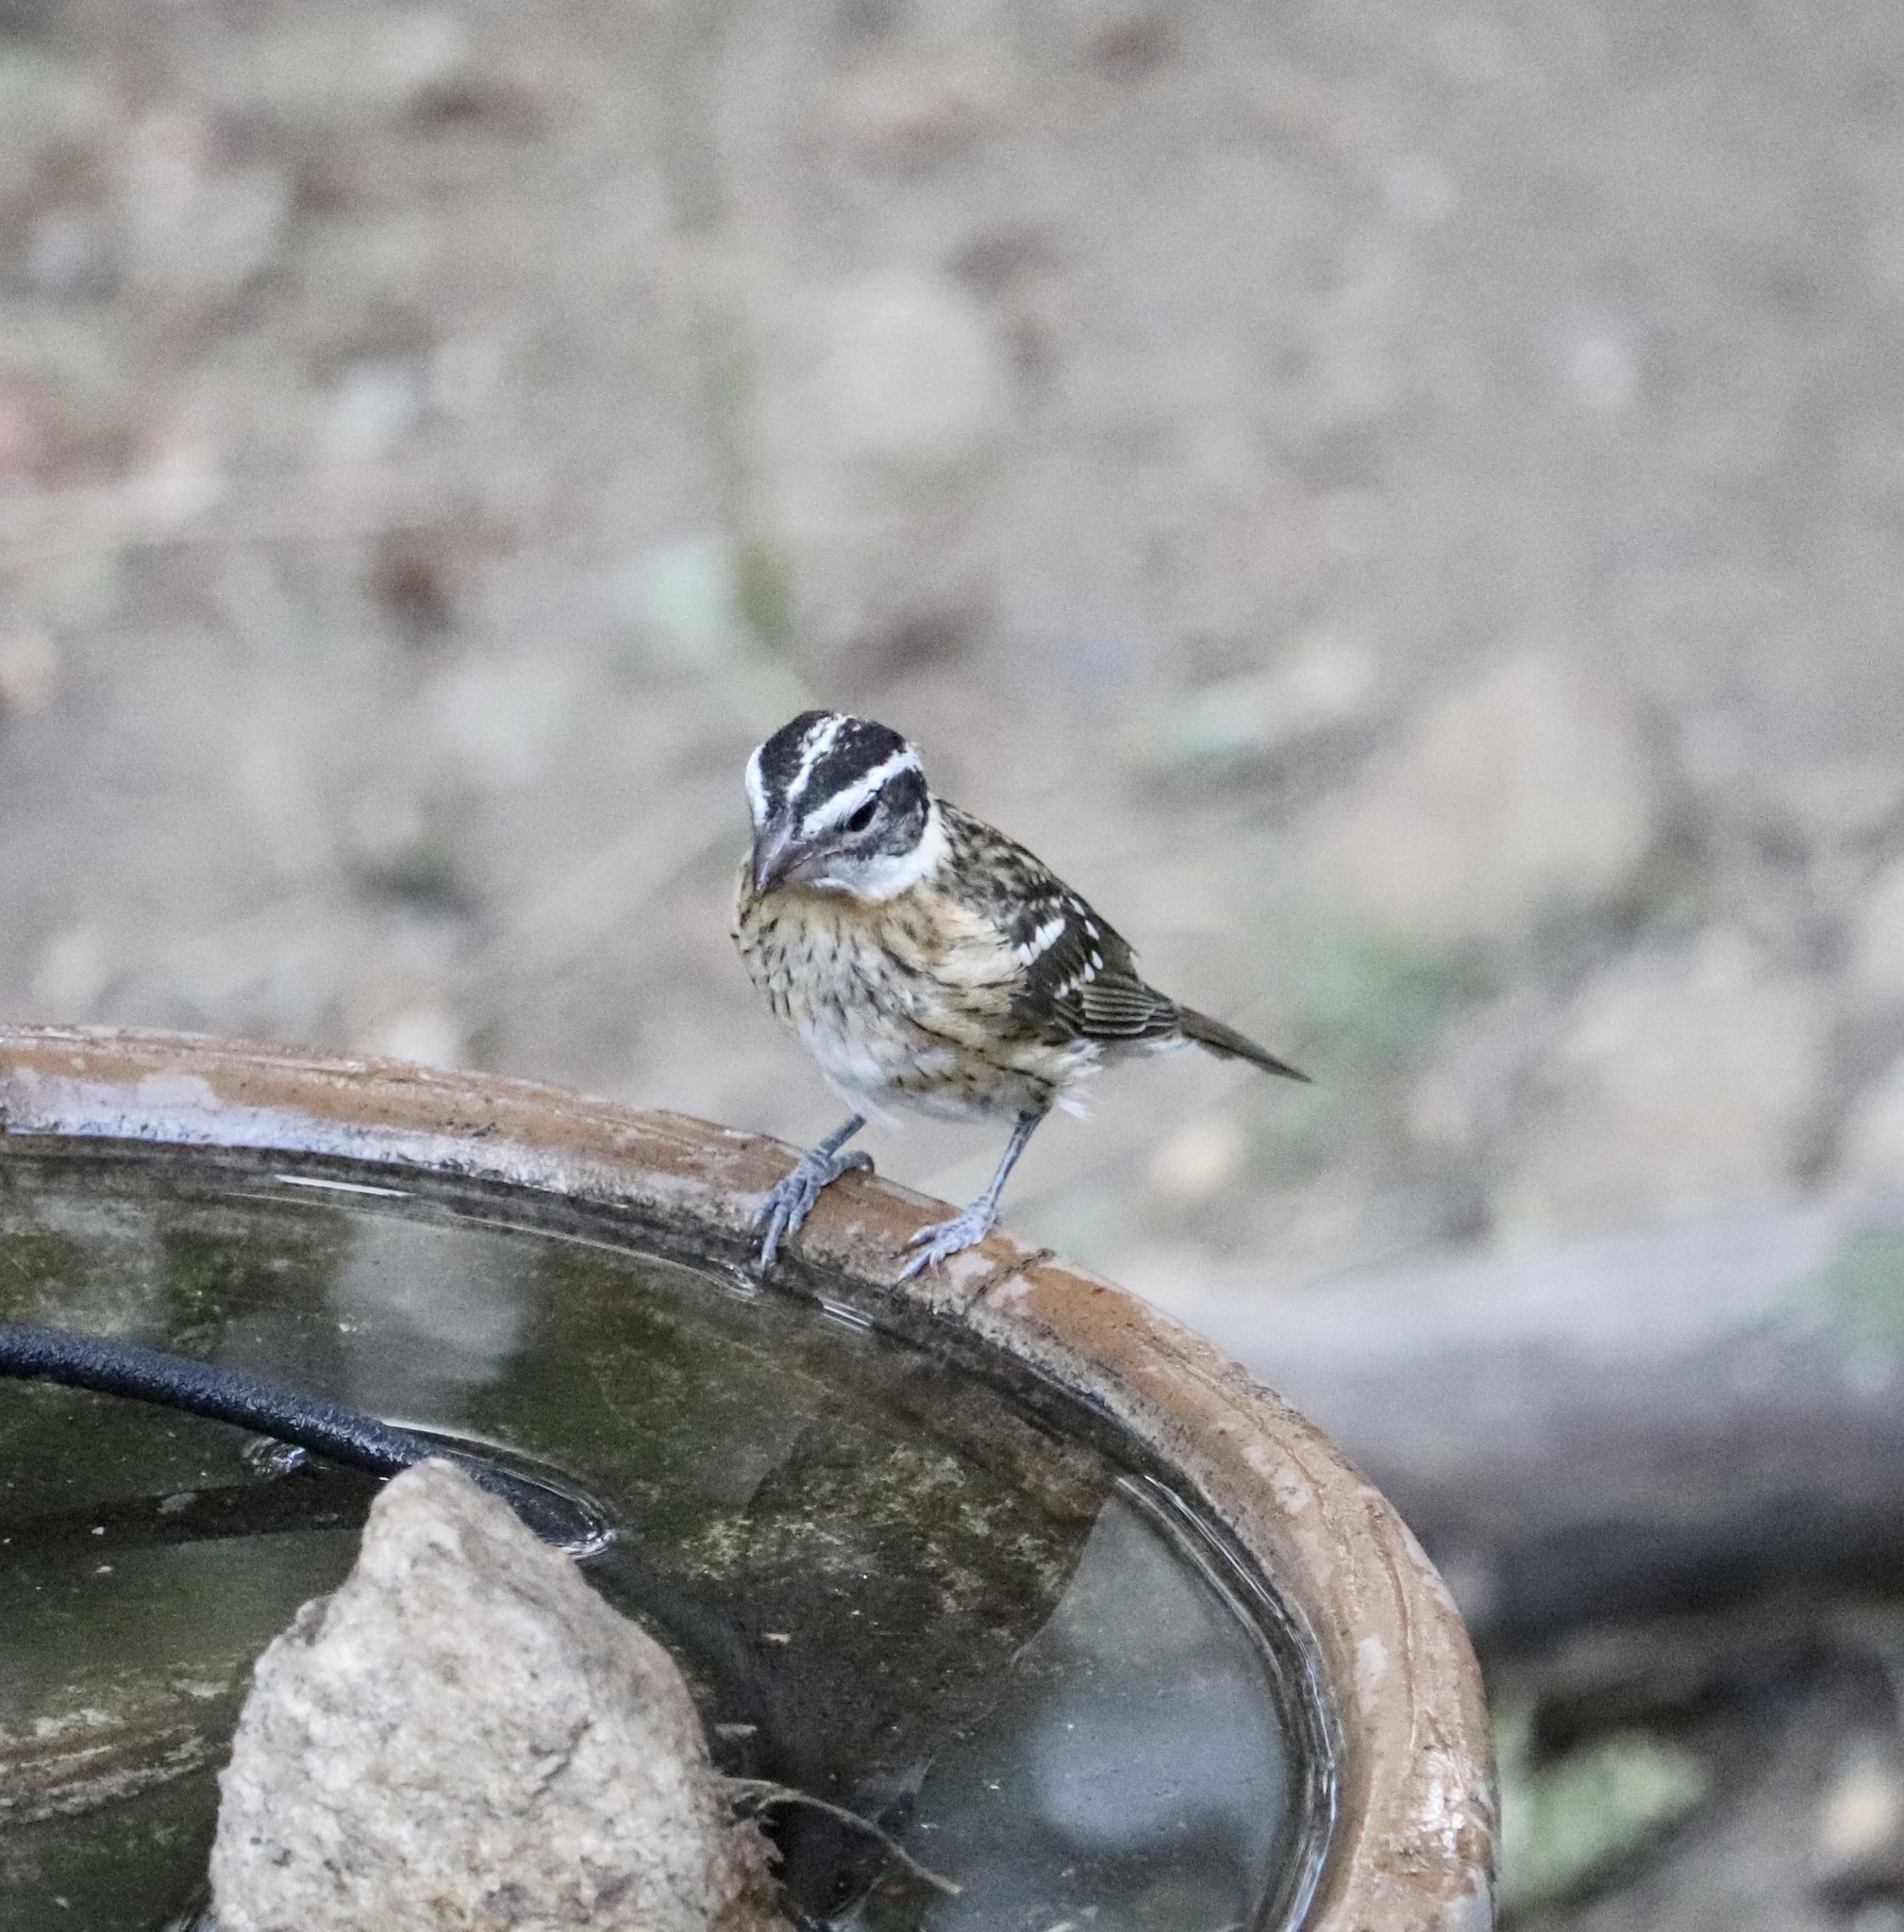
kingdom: Animalia
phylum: Chordata
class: Aves
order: Passeriformes
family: Cardinalidae
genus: Pheucticus
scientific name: Pheucticus melanocephalus
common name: Black-headed grosbeak
